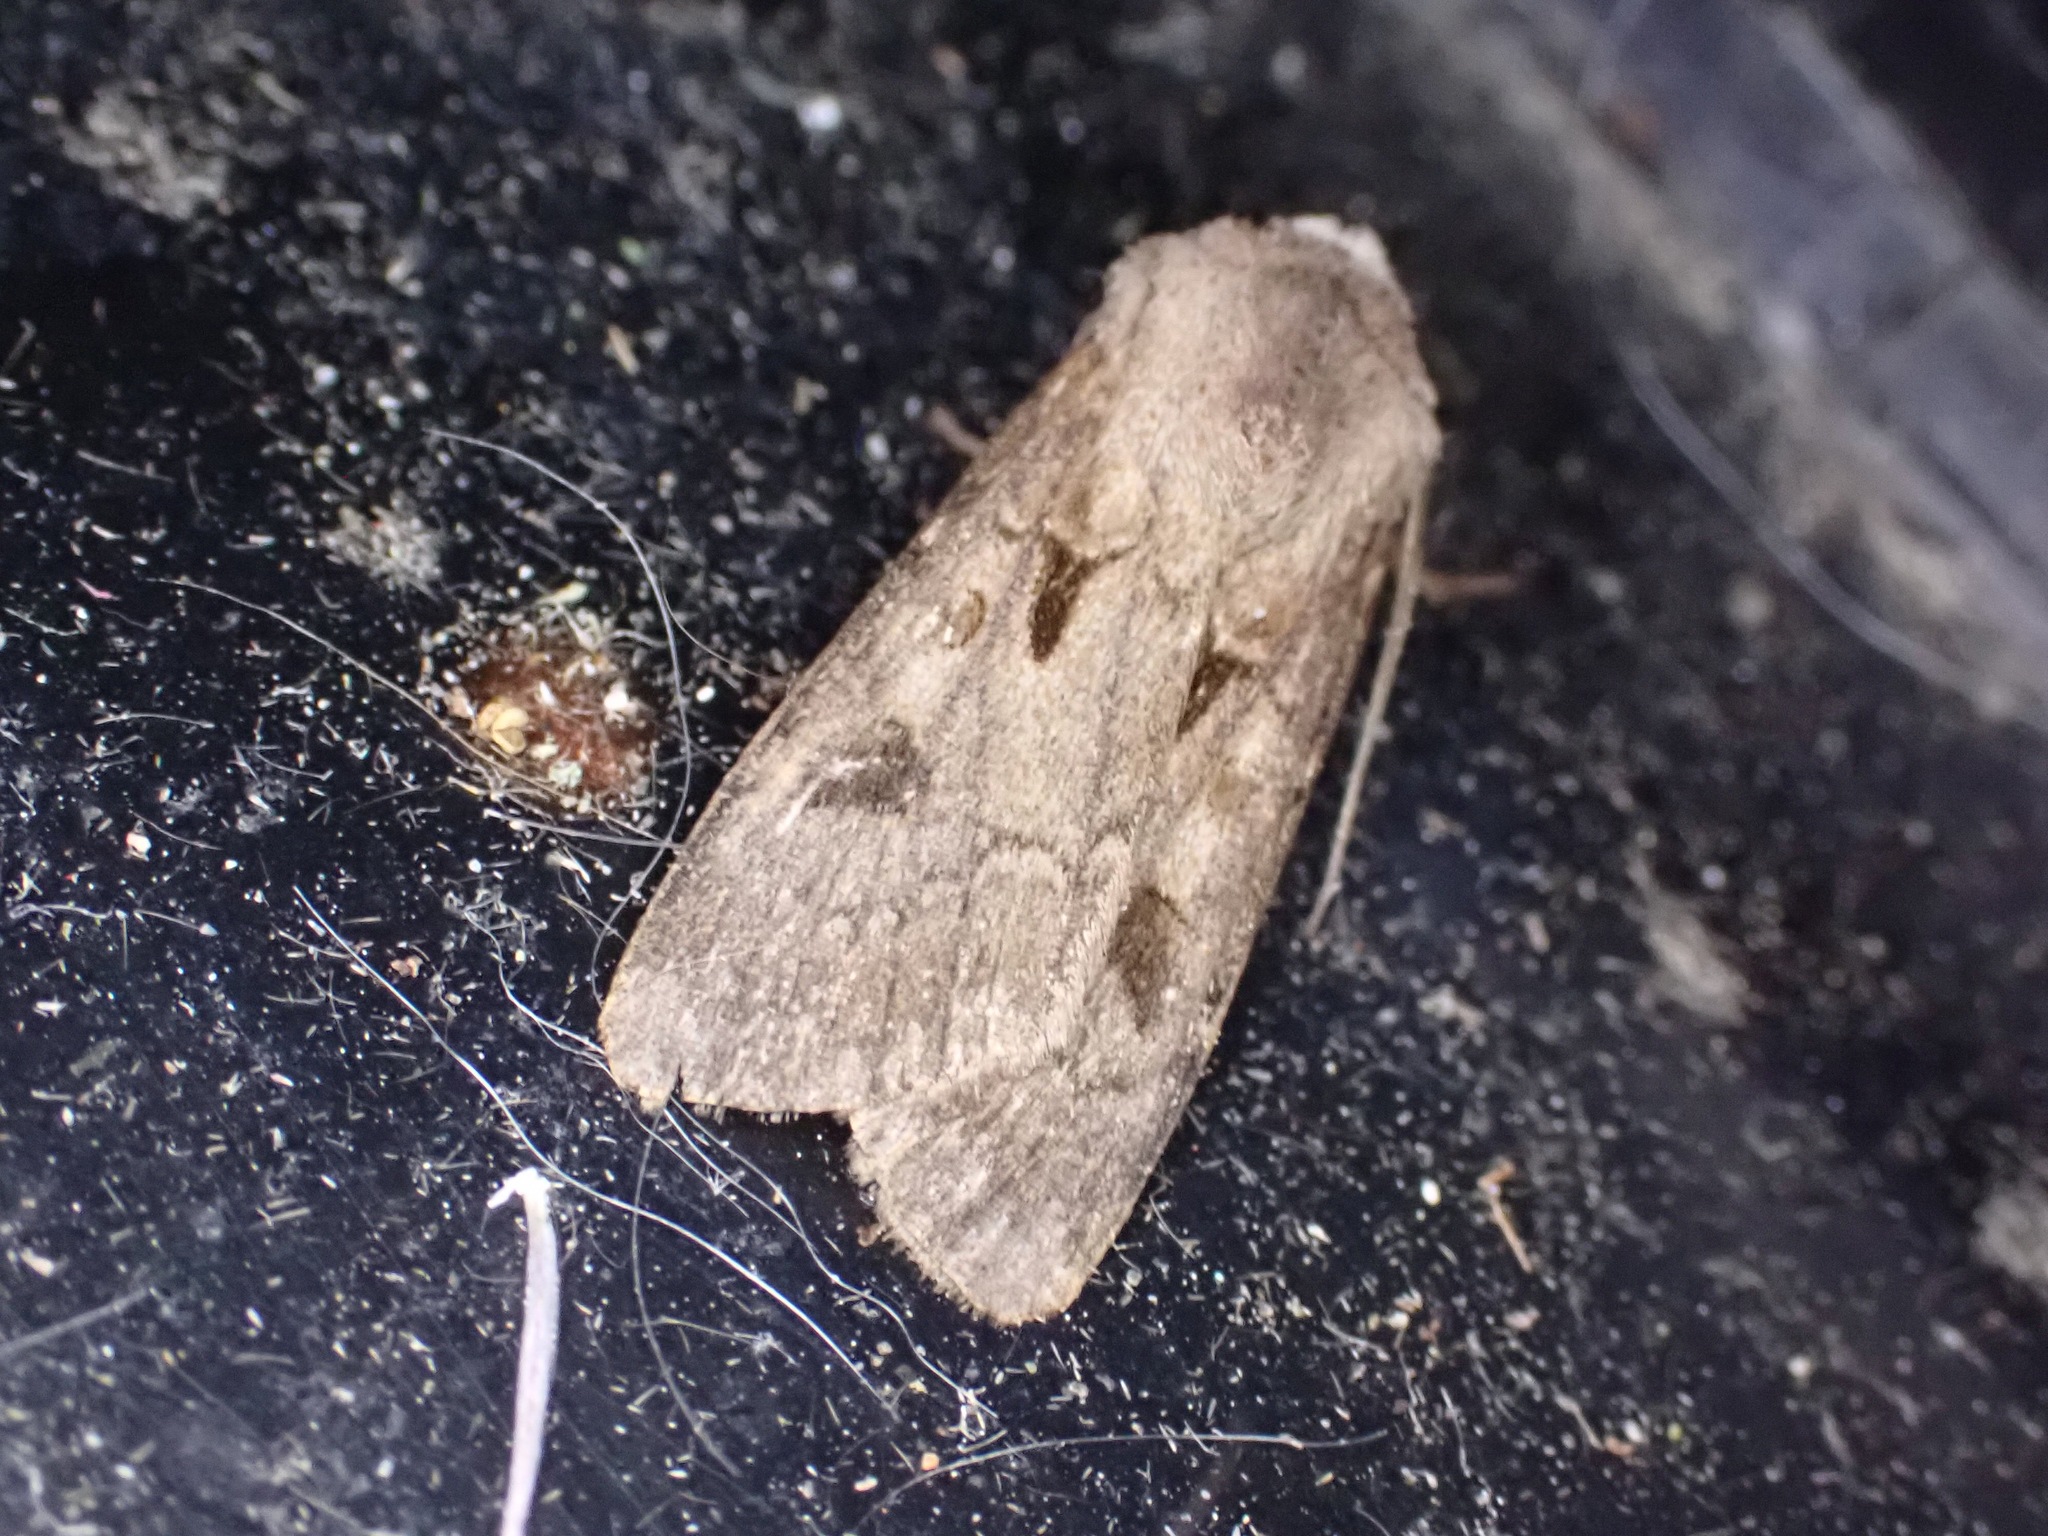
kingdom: Animalia
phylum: Arthropoda
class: Insecta
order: Lepidoptera
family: Noctuidae
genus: Agrotis
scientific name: Agrotis exclamationis
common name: Heart and dart
